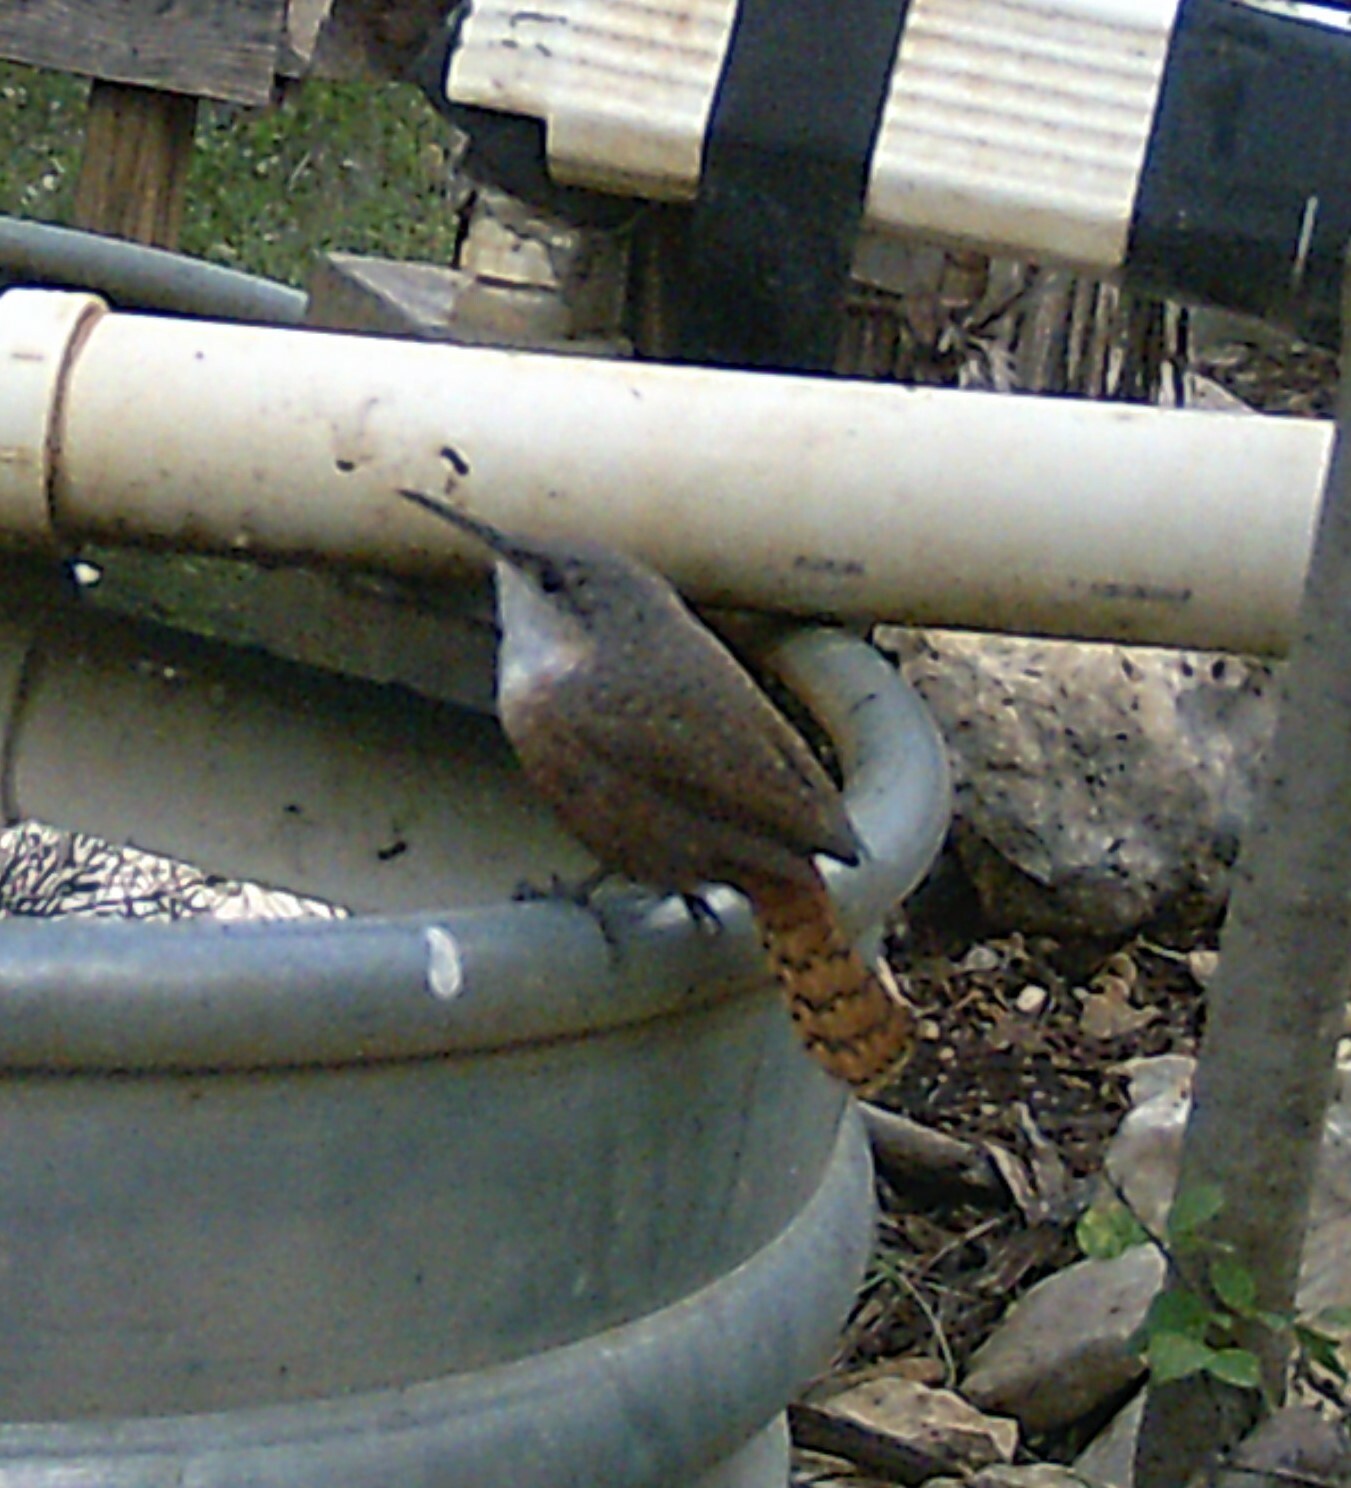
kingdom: Animalia
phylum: Chordata
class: Aves
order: Passeriformes
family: Troglodytidae
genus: Catherpes
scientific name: Catherpes mexicanus
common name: Canyon wren
